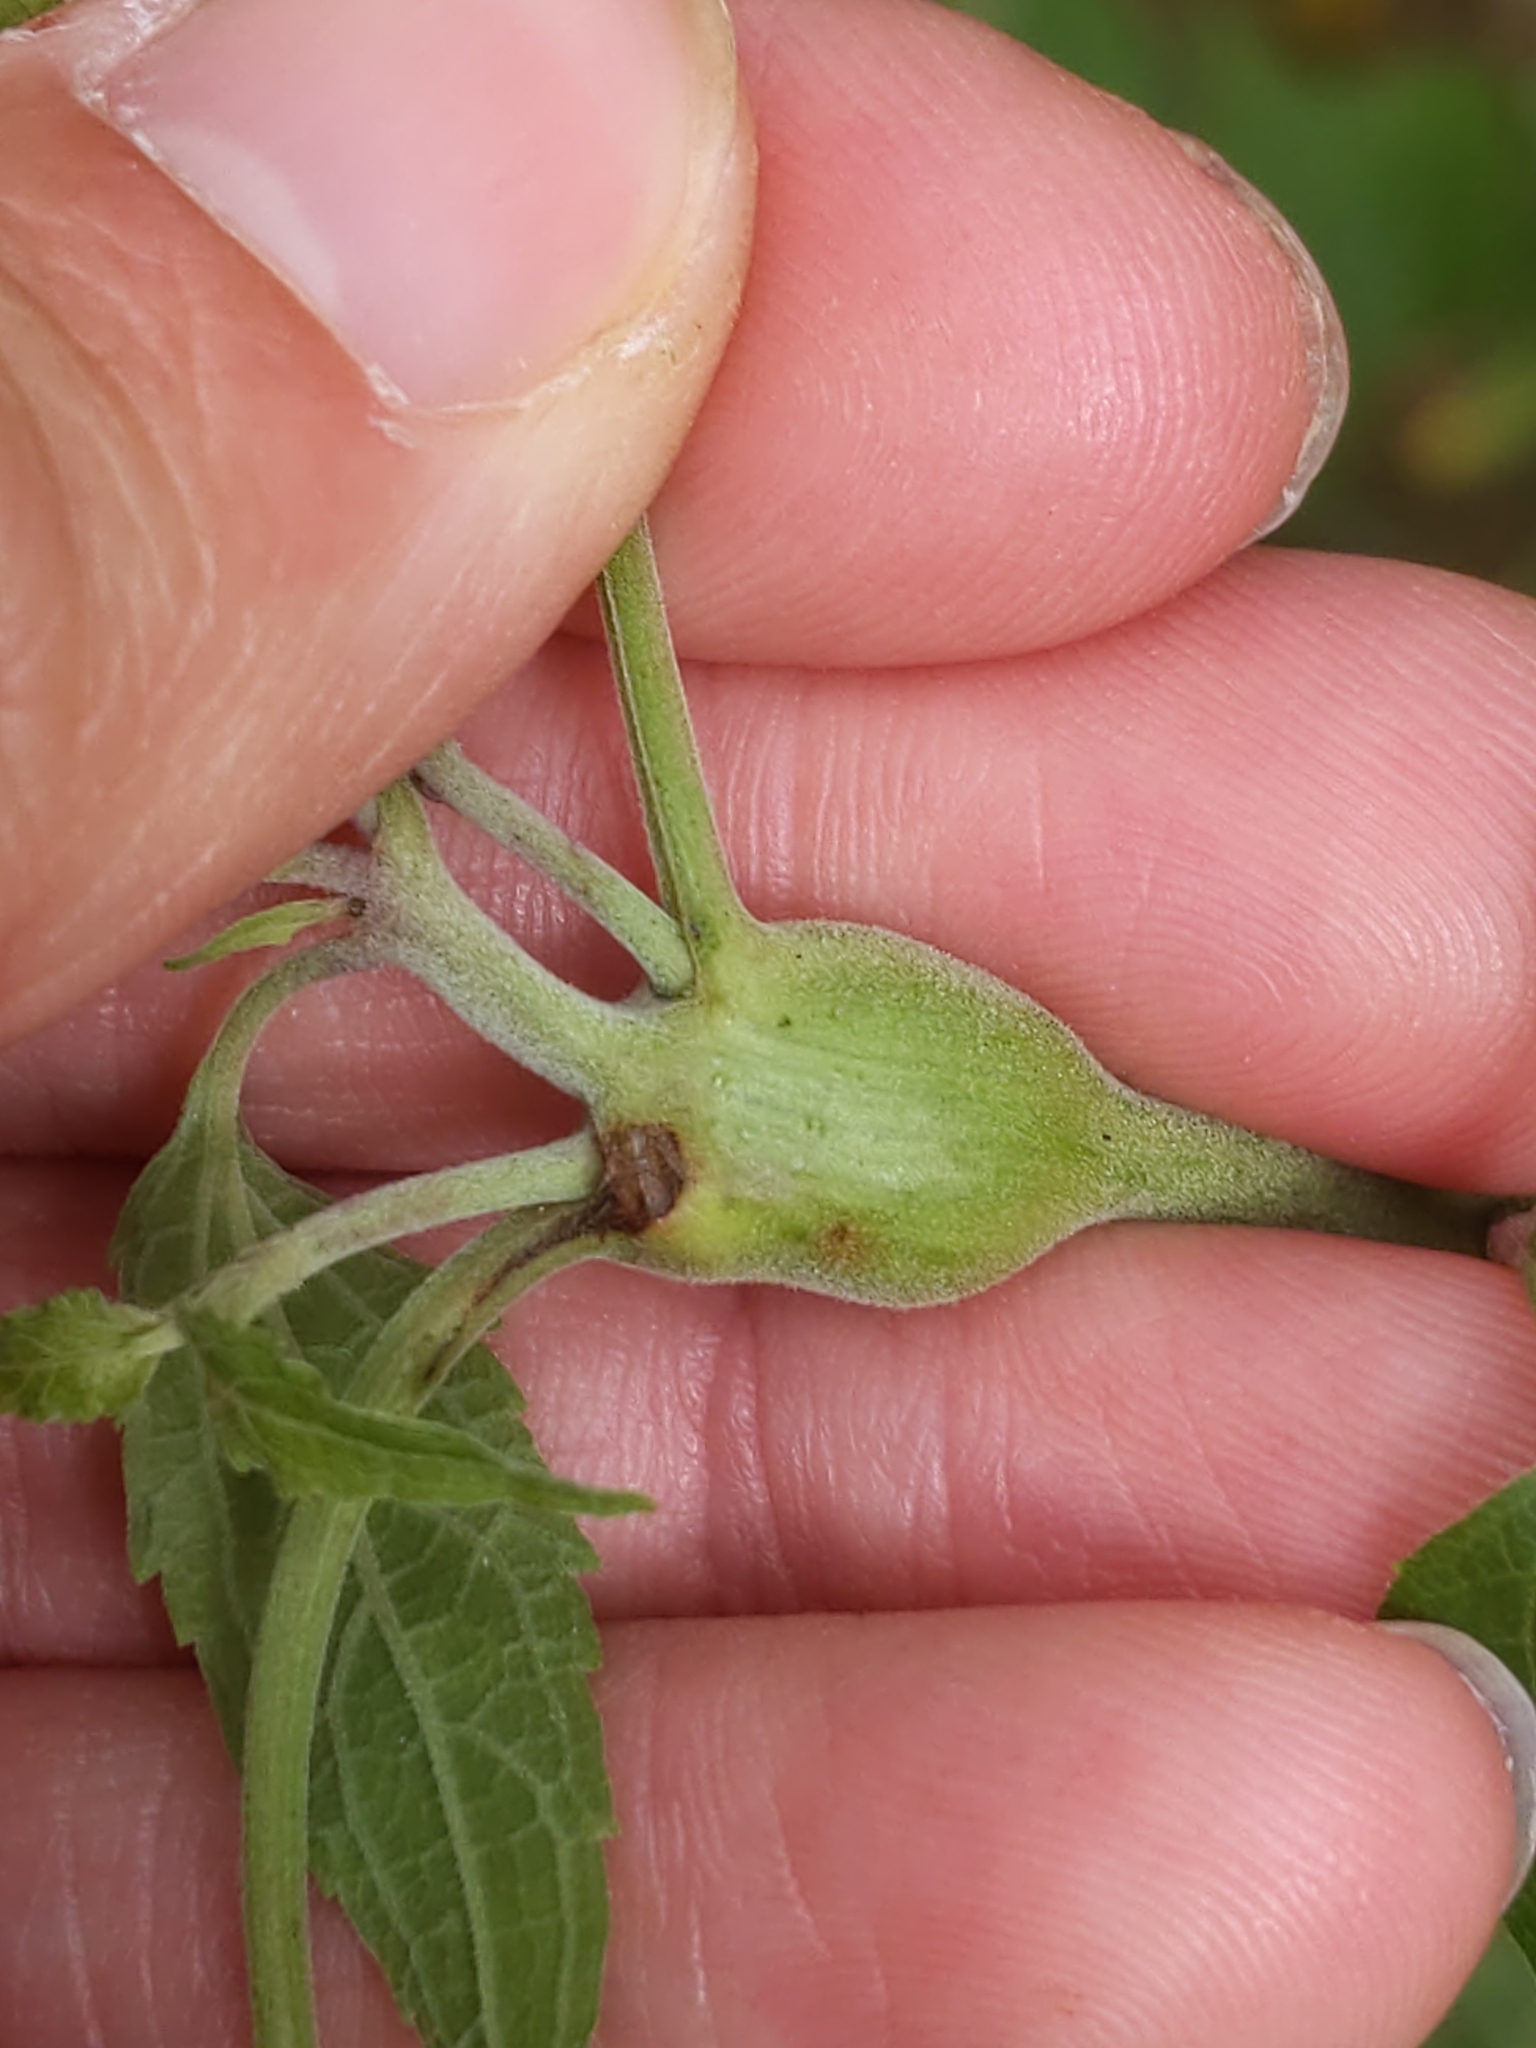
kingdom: Animalia
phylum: Arthropoda
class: Insecta
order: Diptera
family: Cecidomyiidae
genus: Neolasioptera
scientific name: Neolasioptera eupatorii
